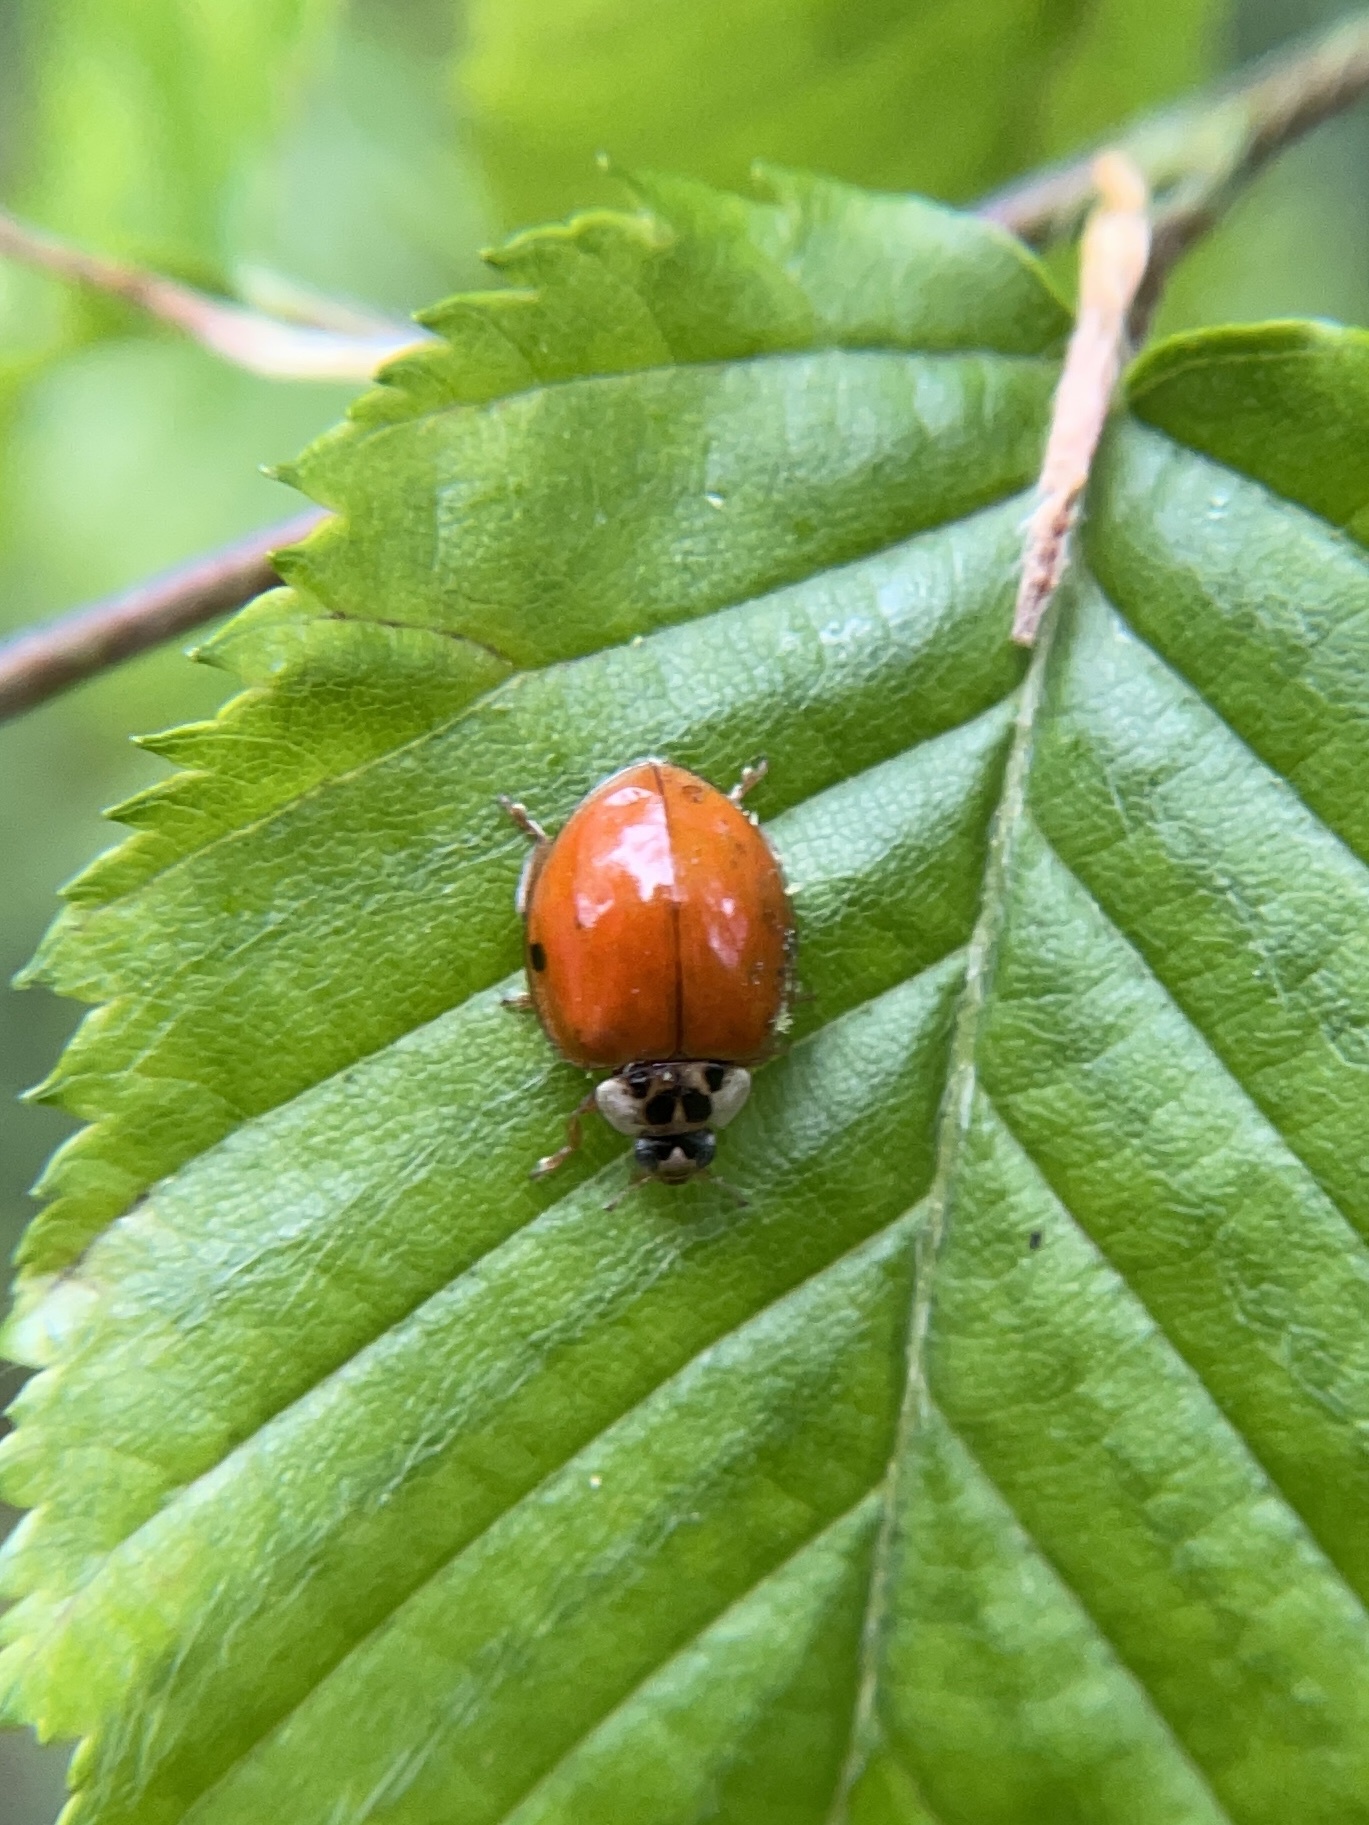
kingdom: Animalia
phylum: Arthropoda
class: Insecta
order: Coleoptera
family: Coccinellidae
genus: Harmonia
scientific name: Harmonia axyridis
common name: Harlequin ladybird
